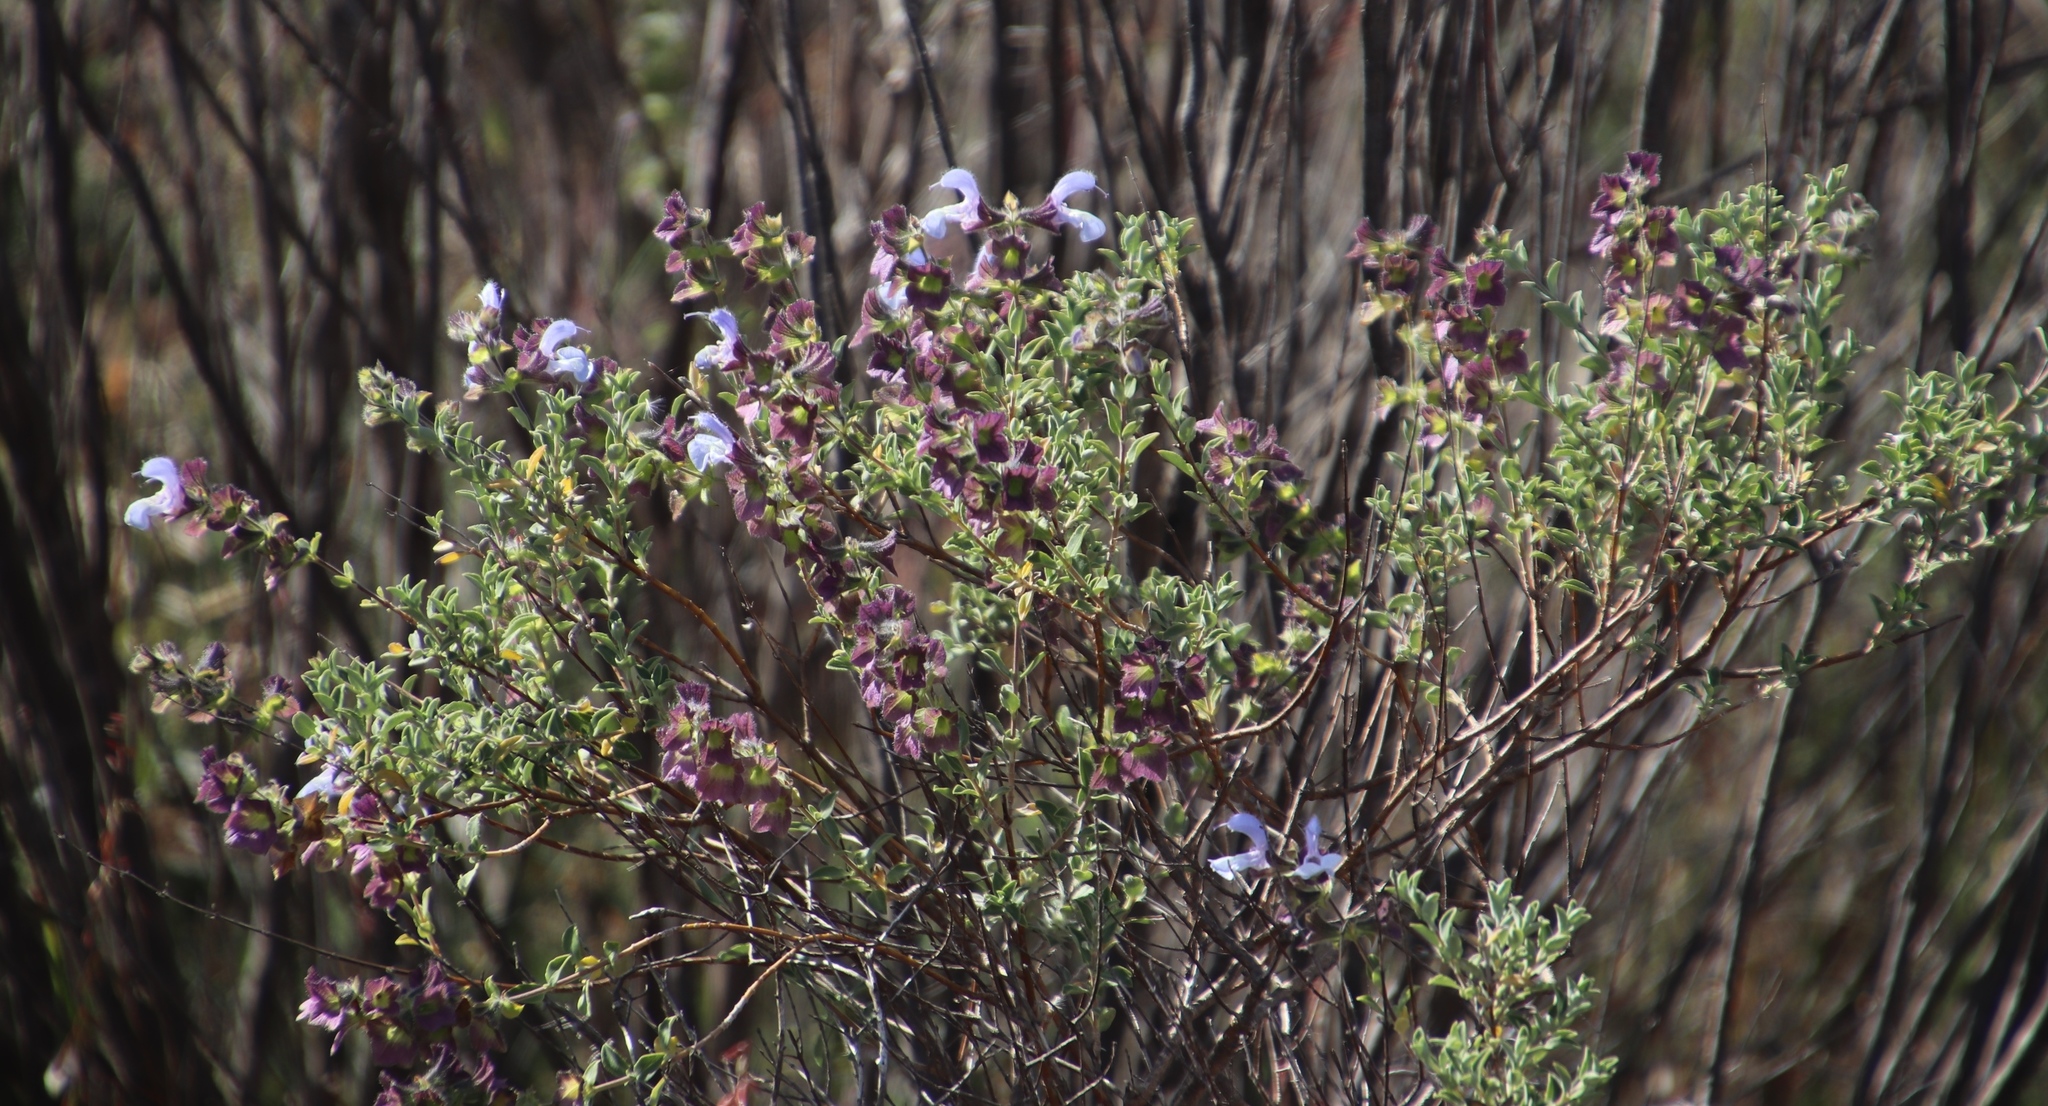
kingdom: Plantae
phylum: Tracheophyta
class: Magnoliopsida
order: Lamiales
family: Lamiaceae
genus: Salvia
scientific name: Salvia africana
